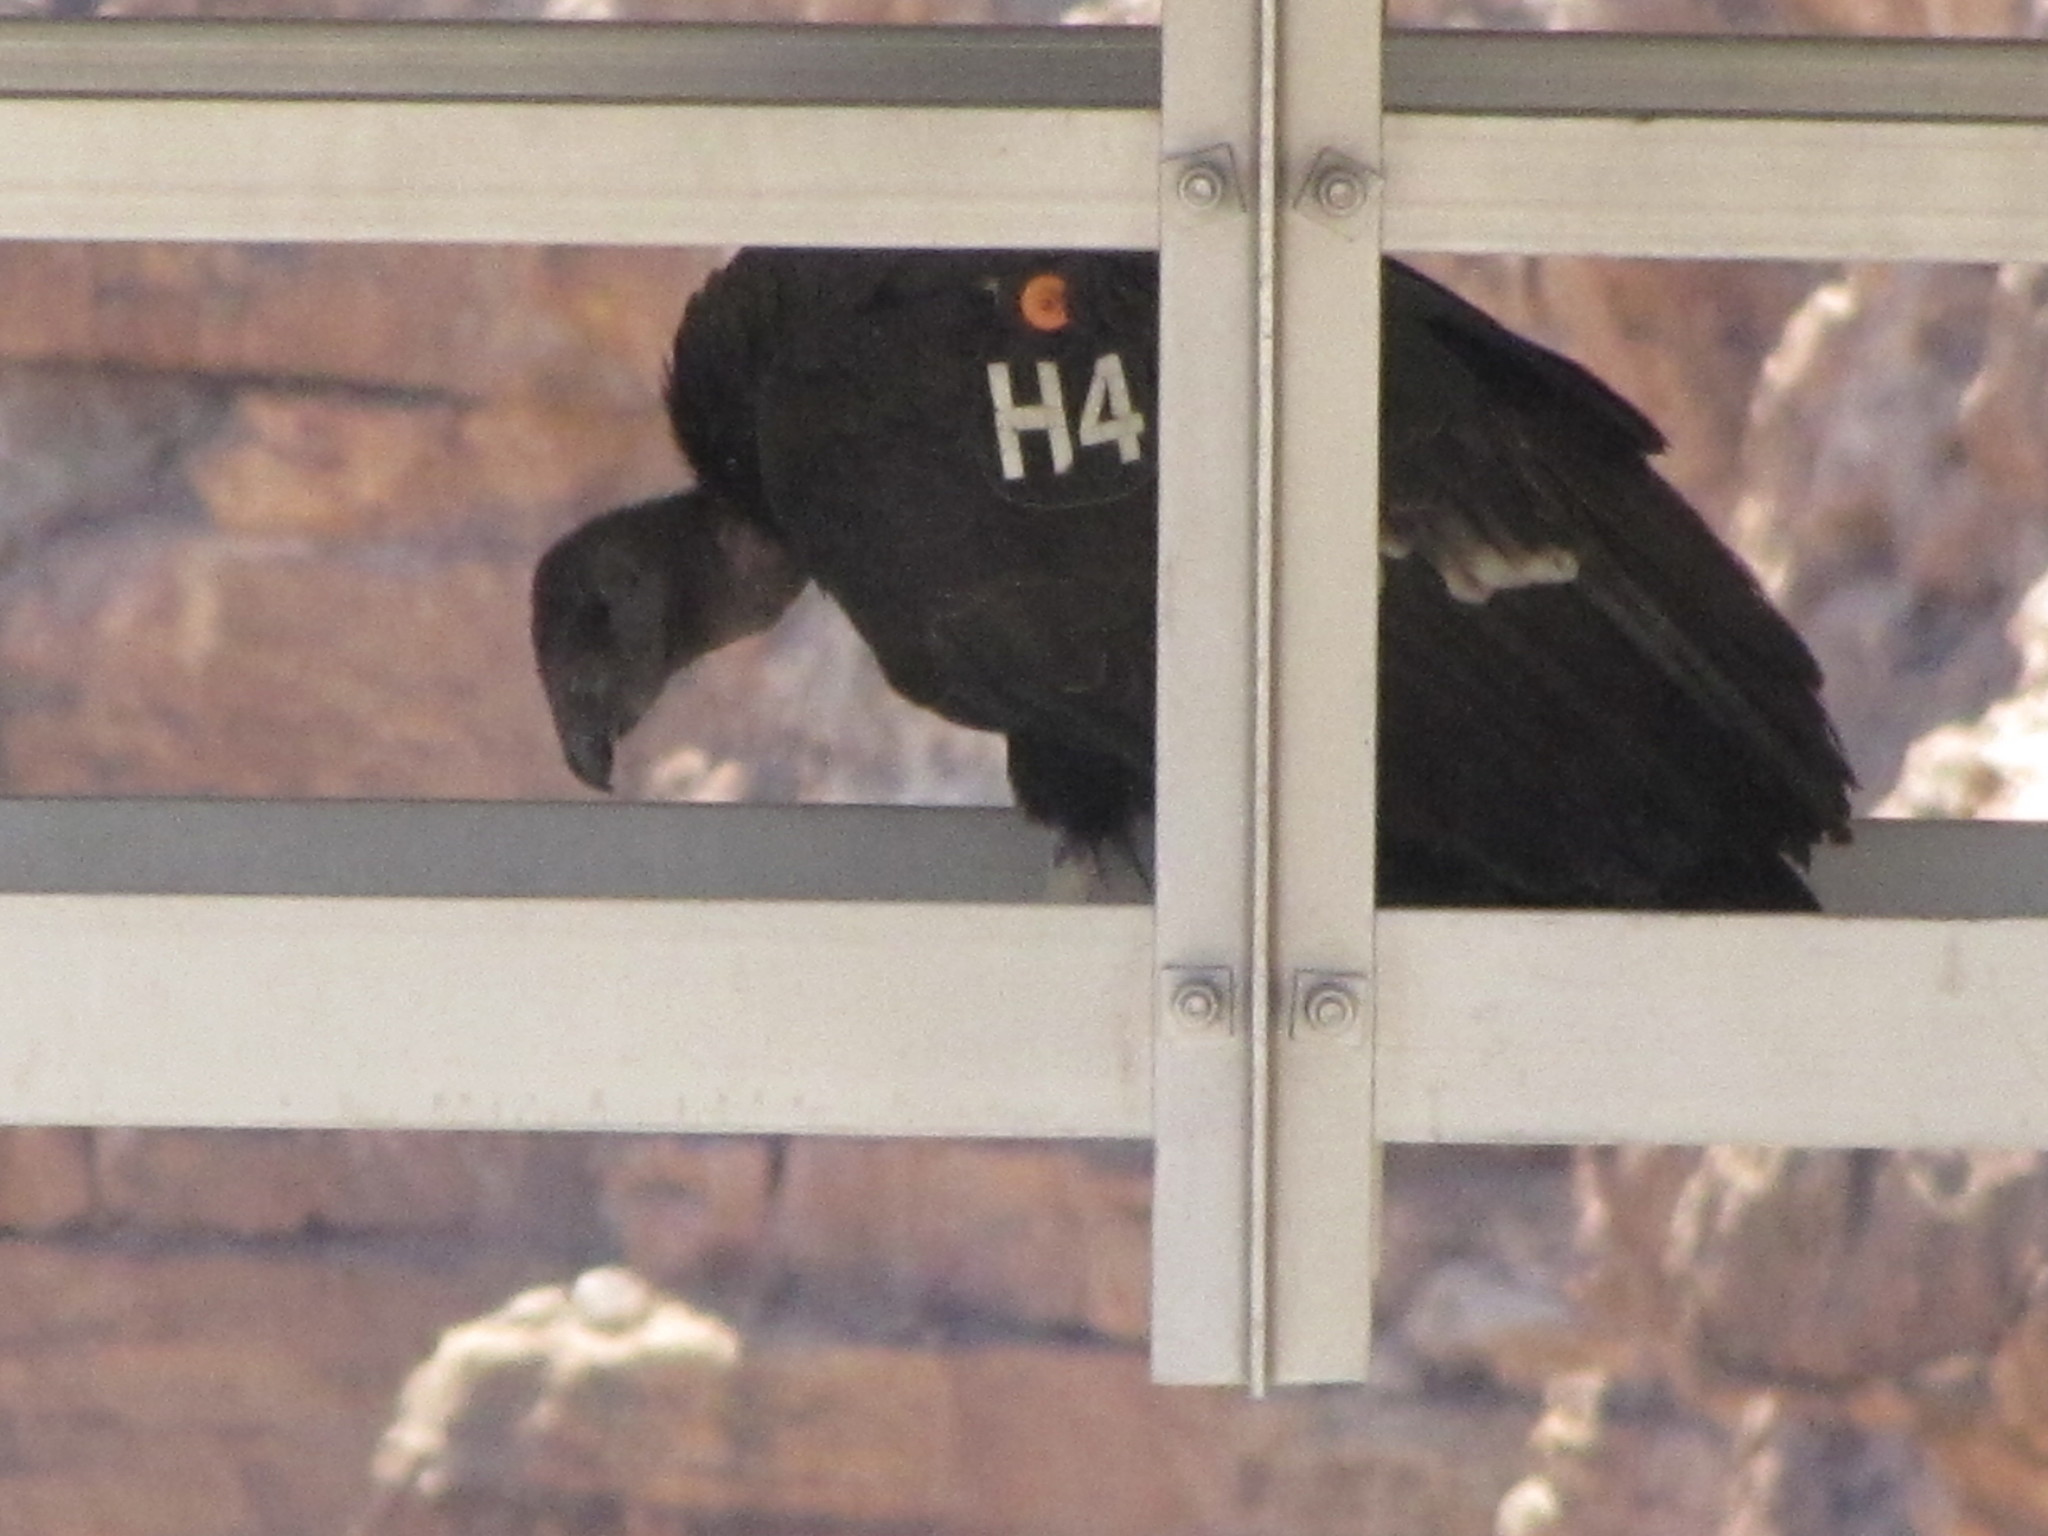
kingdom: Animalia
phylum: Chordata
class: Aves
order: Accipitriformes
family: Cathartidae
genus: Gymnogyps
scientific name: Gymnogyps californianus
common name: California condor
